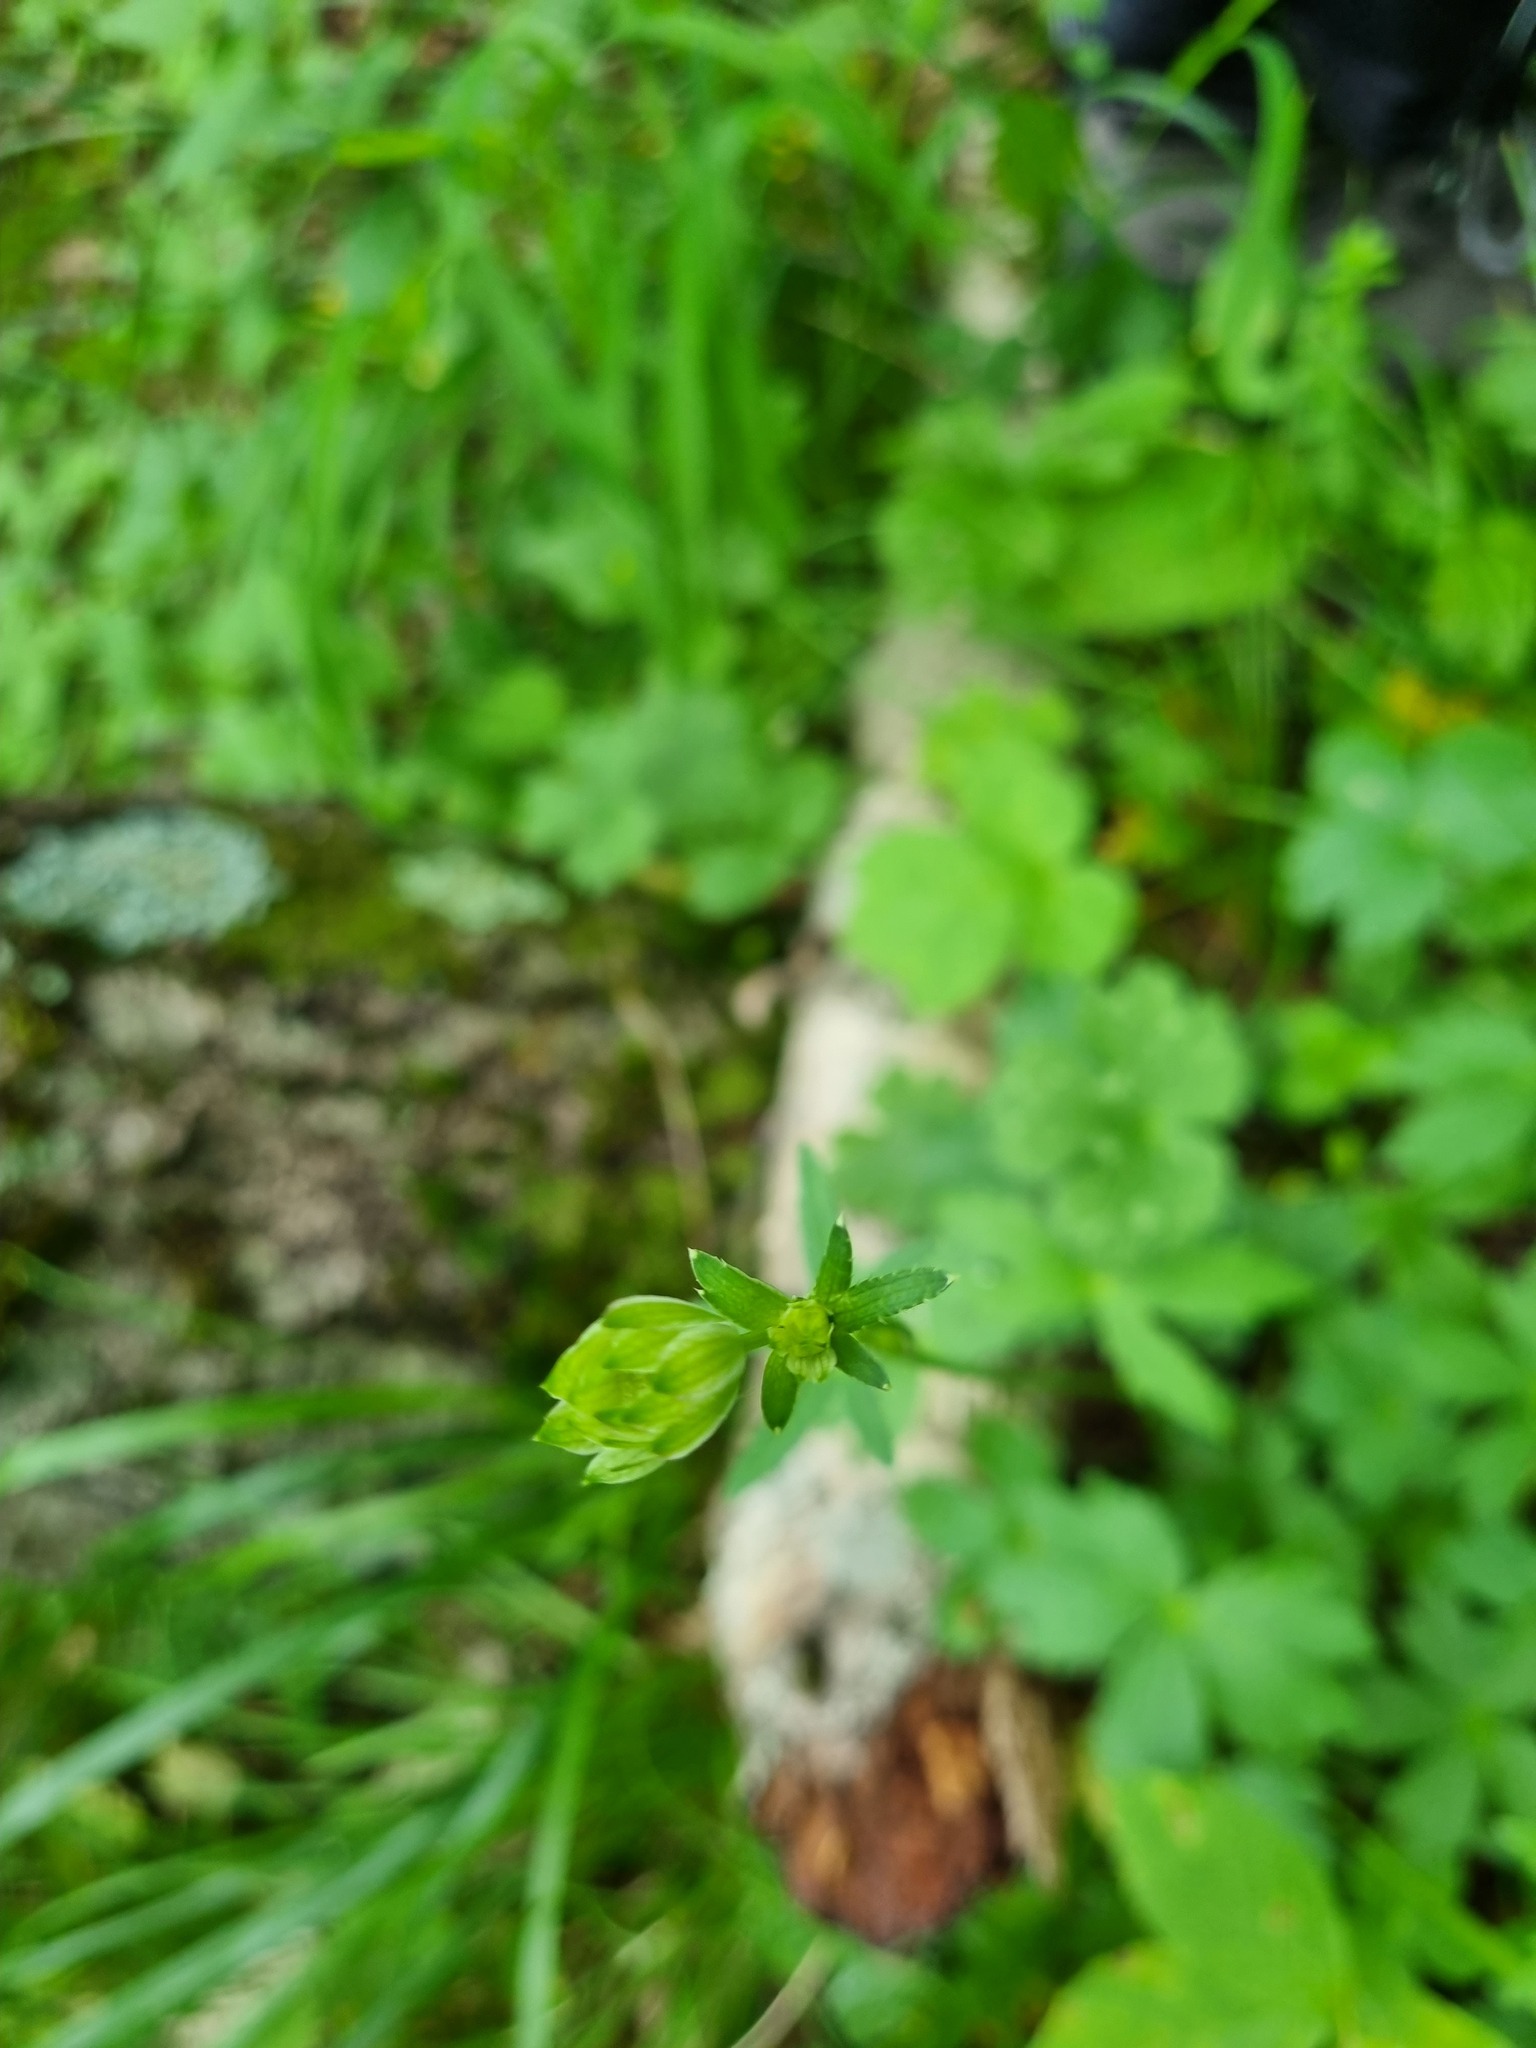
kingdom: Plantae
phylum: Tracheophyta
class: Magnoliopsida
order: Apiales
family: Apiaceae
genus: Astrantia
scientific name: Astrantia trifida
